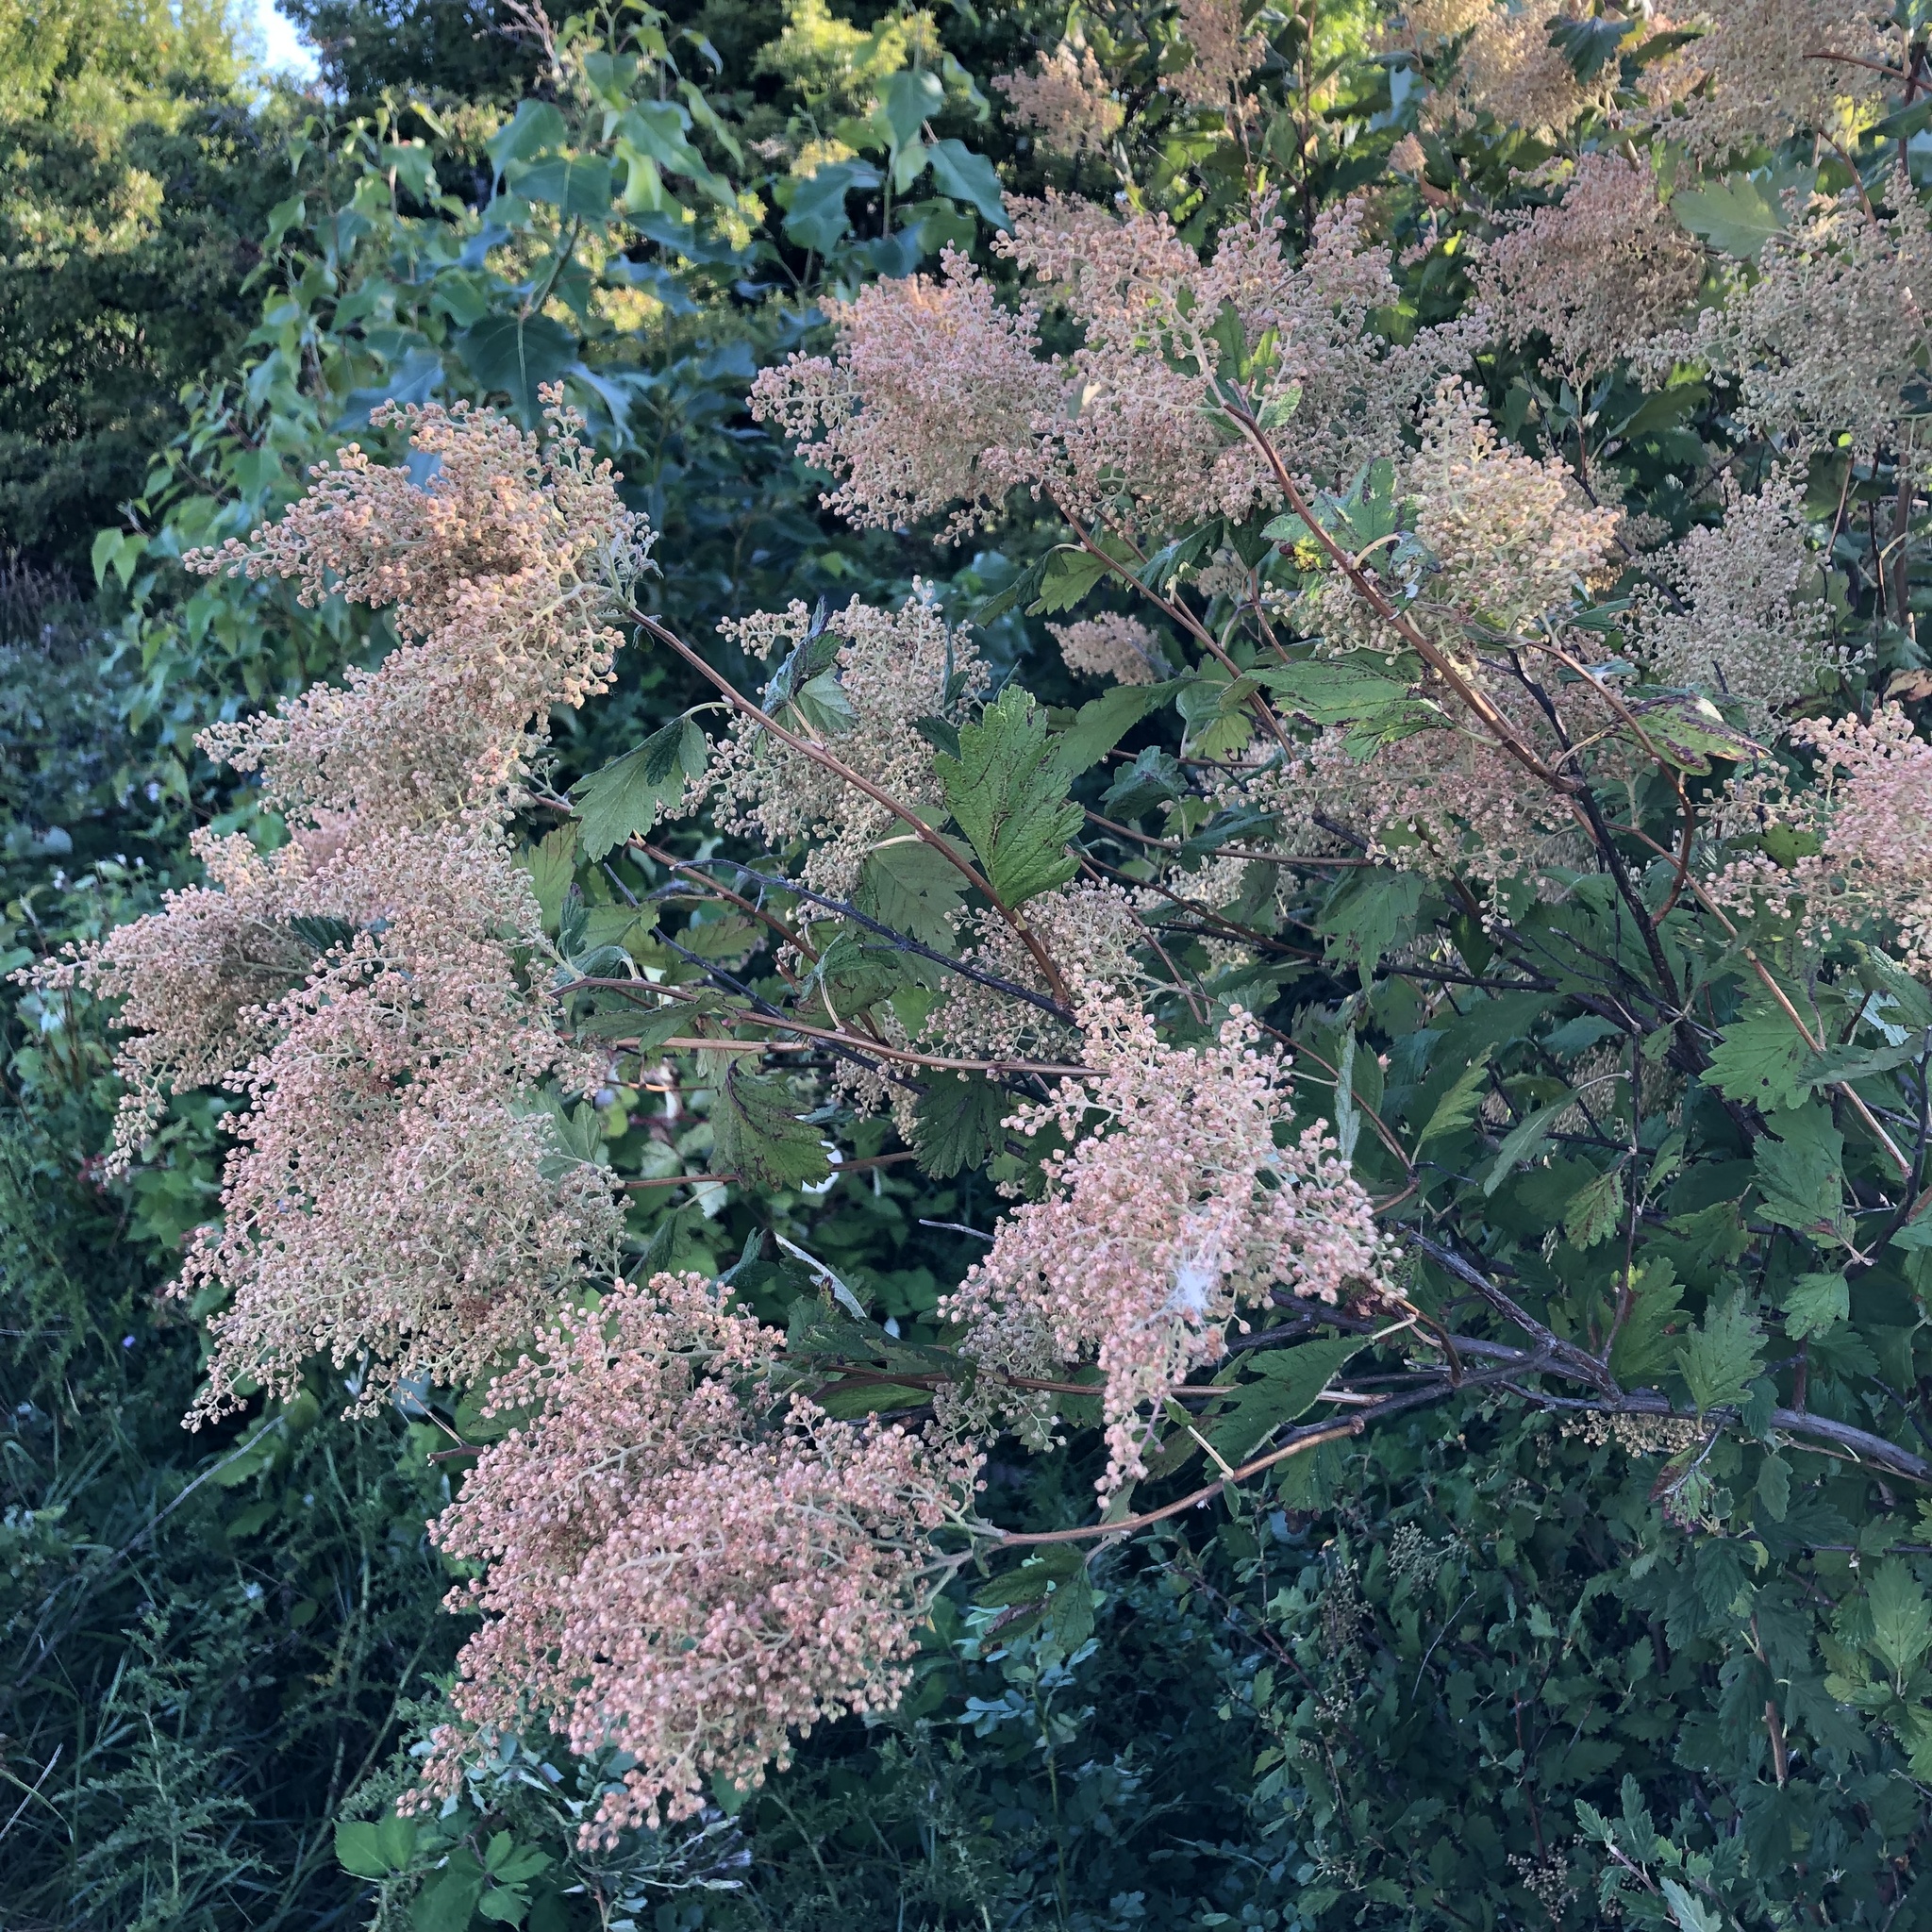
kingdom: Plantae
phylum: Tracheophyta
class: Magnoliopsida
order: Rosales
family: Rosaceae
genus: Holodiscus
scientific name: Holodiscus discolor
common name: Oceanspray
